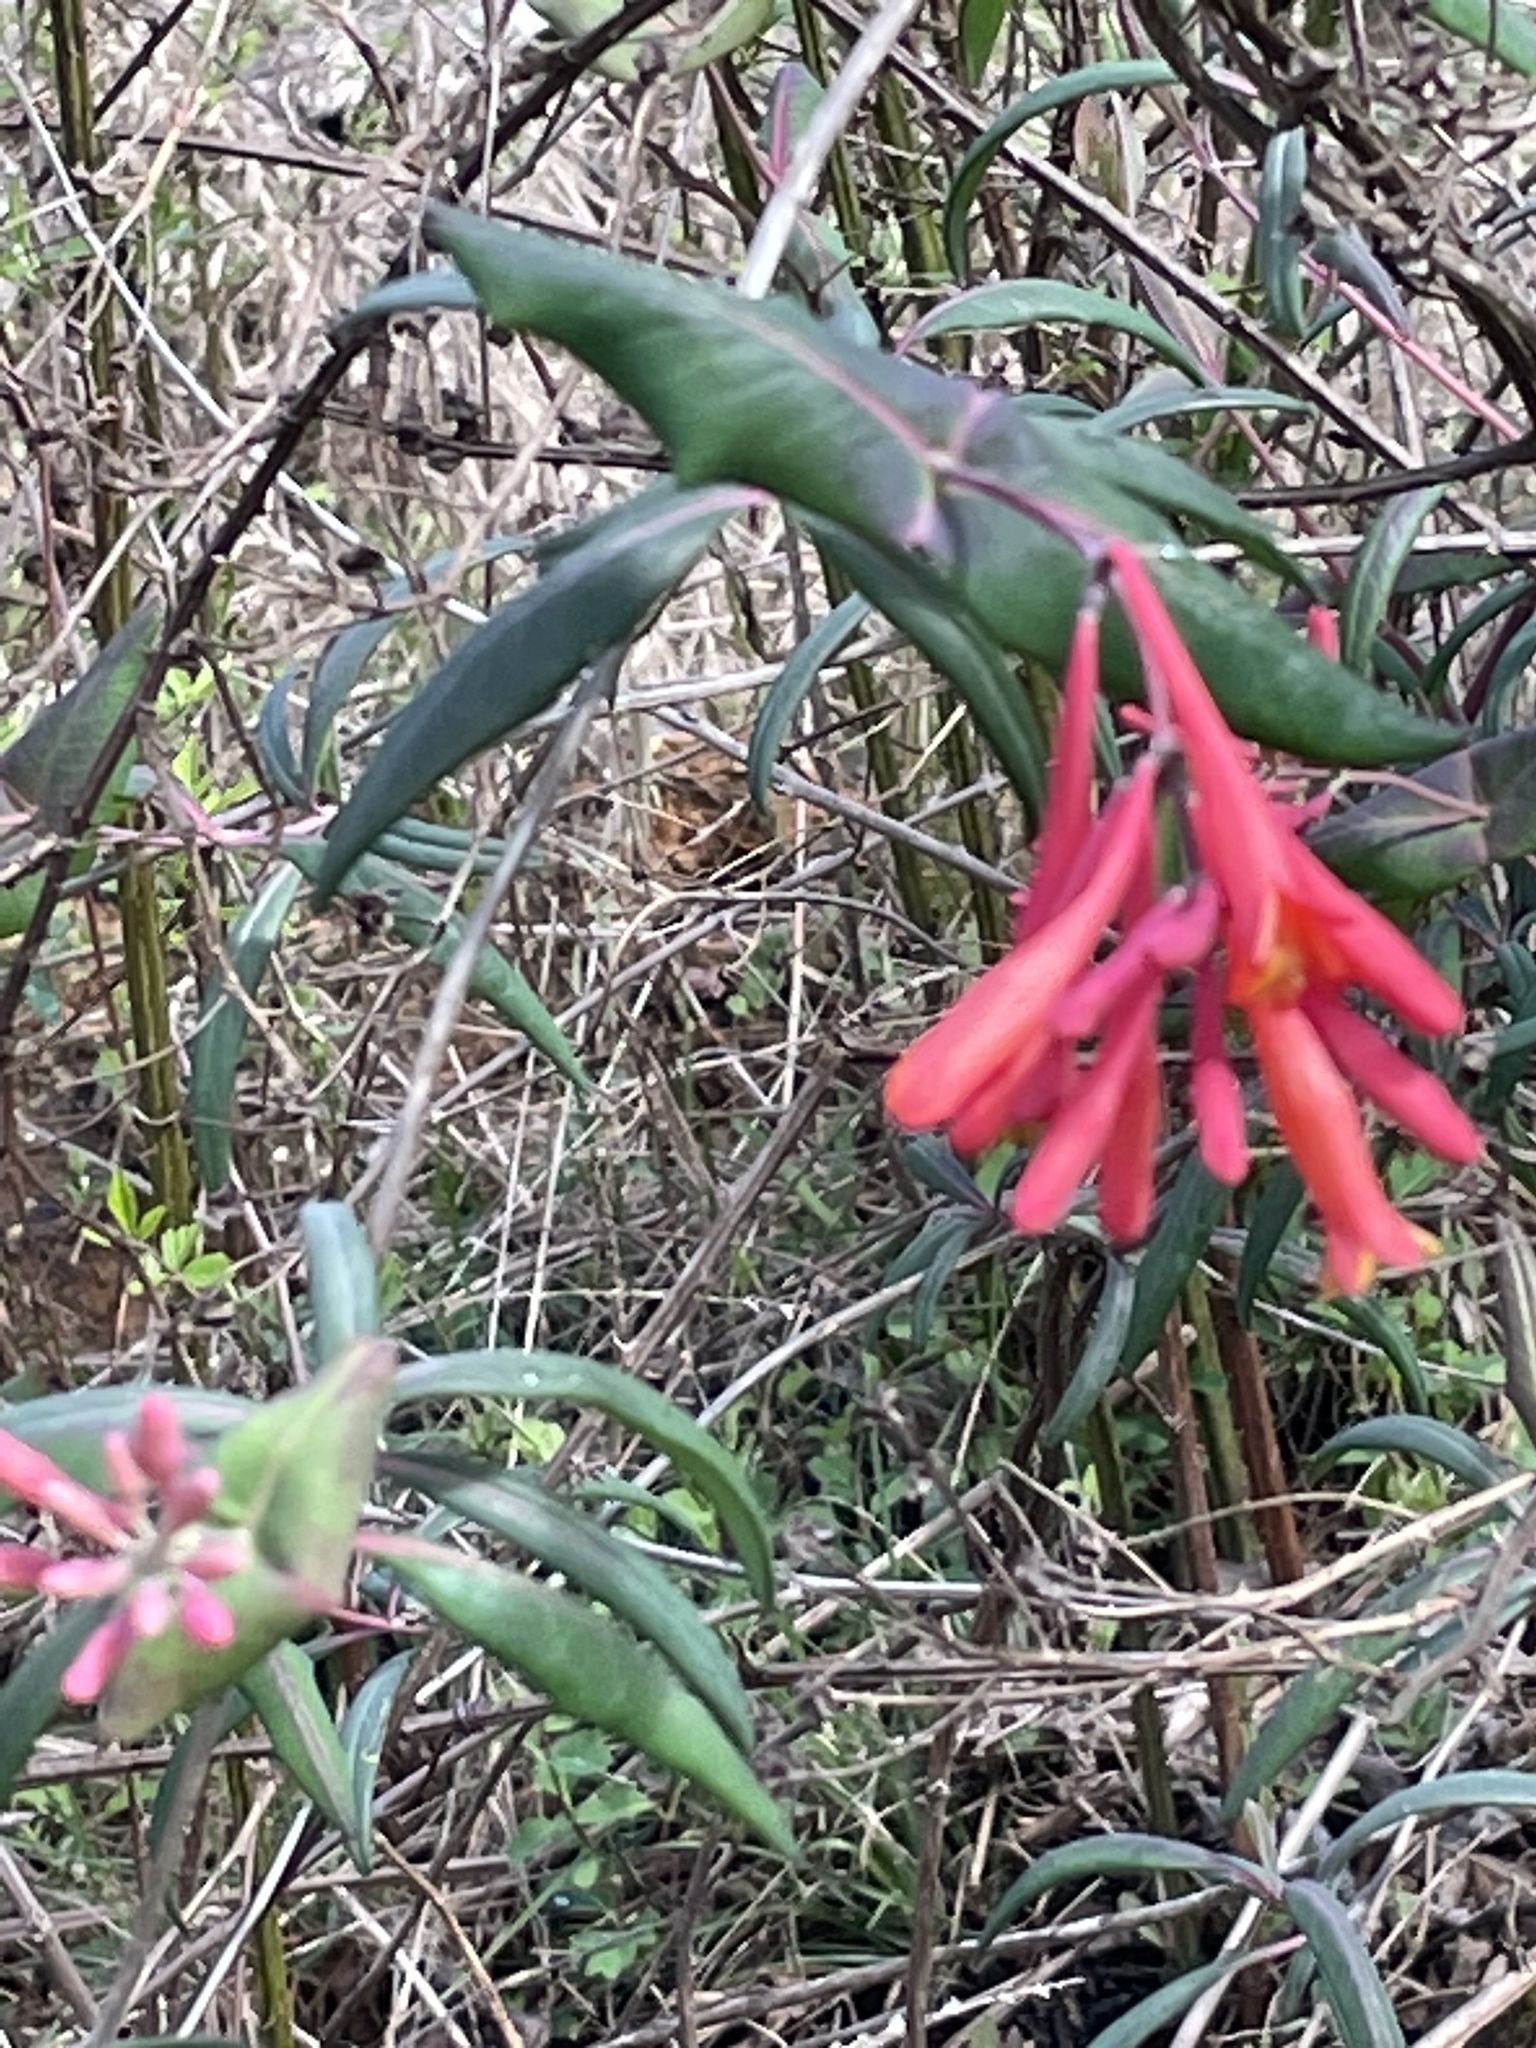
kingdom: Plantae
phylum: Tracheophyta
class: Magnoliopsida
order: Dipsacales
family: Caprifoliaceae
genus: Lonicera
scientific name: Lonicera sempervirens
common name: Coral honeysuckle
